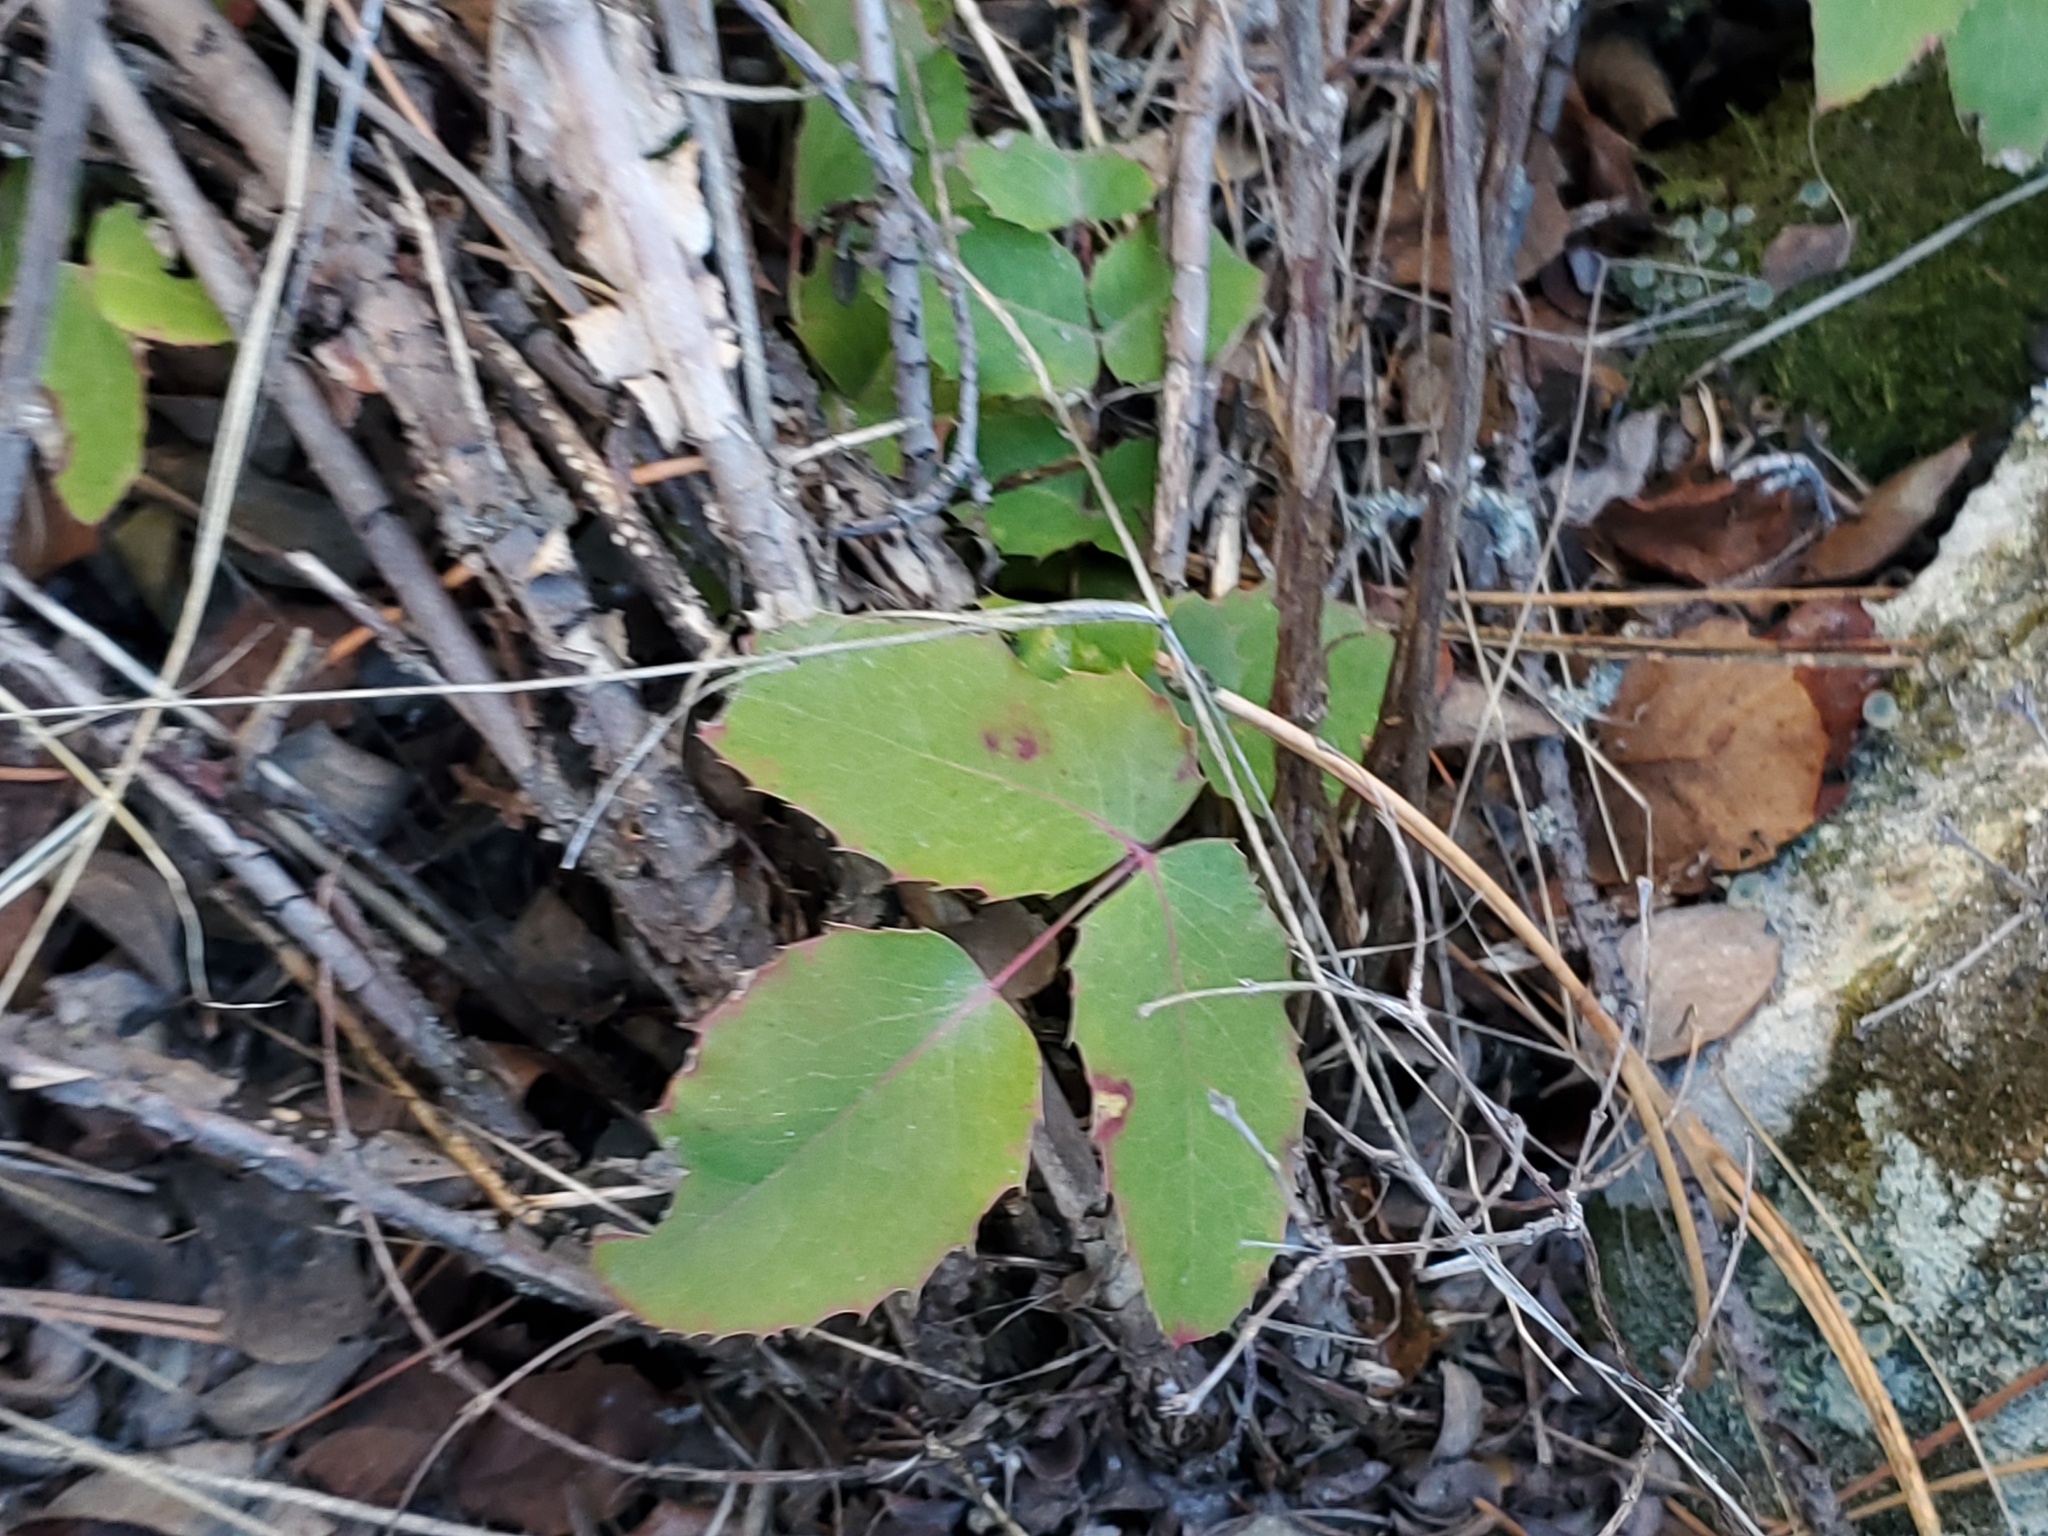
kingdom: Plantae
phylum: Tracheophyta
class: Magnoliopsida
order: Ranunculales
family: Berberidaceae
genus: Mahonia
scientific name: Mahonia repens
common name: Creeping oregon-grape
